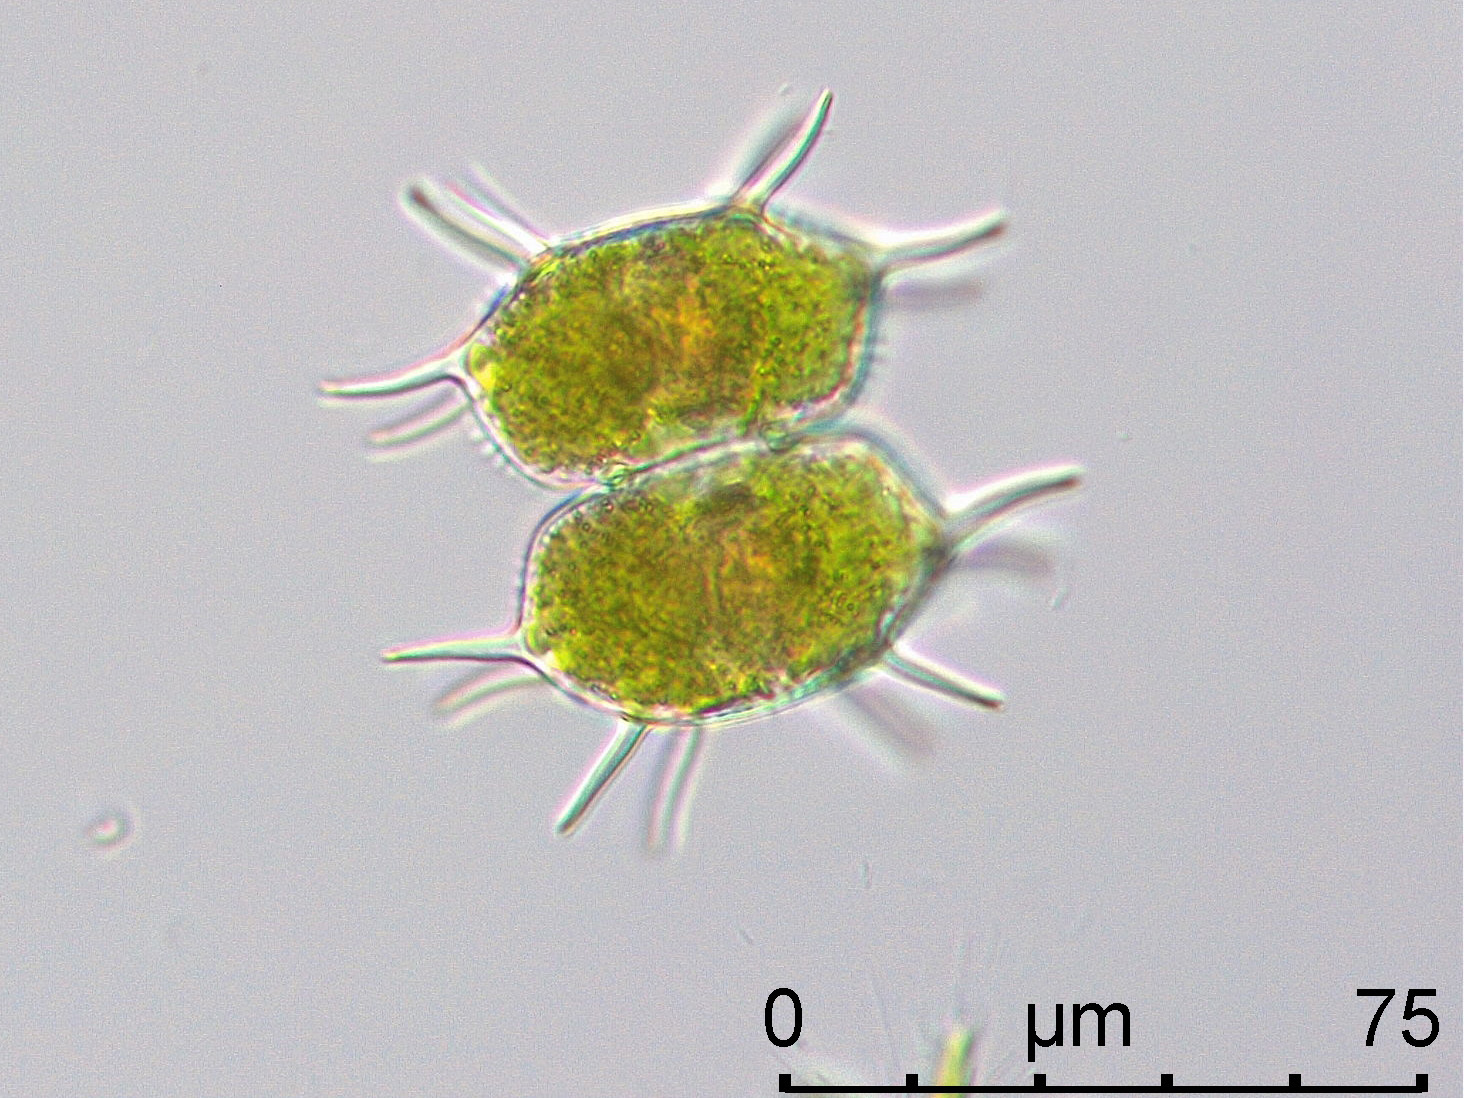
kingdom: Plantae
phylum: Charophyta
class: Conjugatophyceae
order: Desmidiales
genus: Xanthidium
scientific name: Xanthidium antilopaeum
